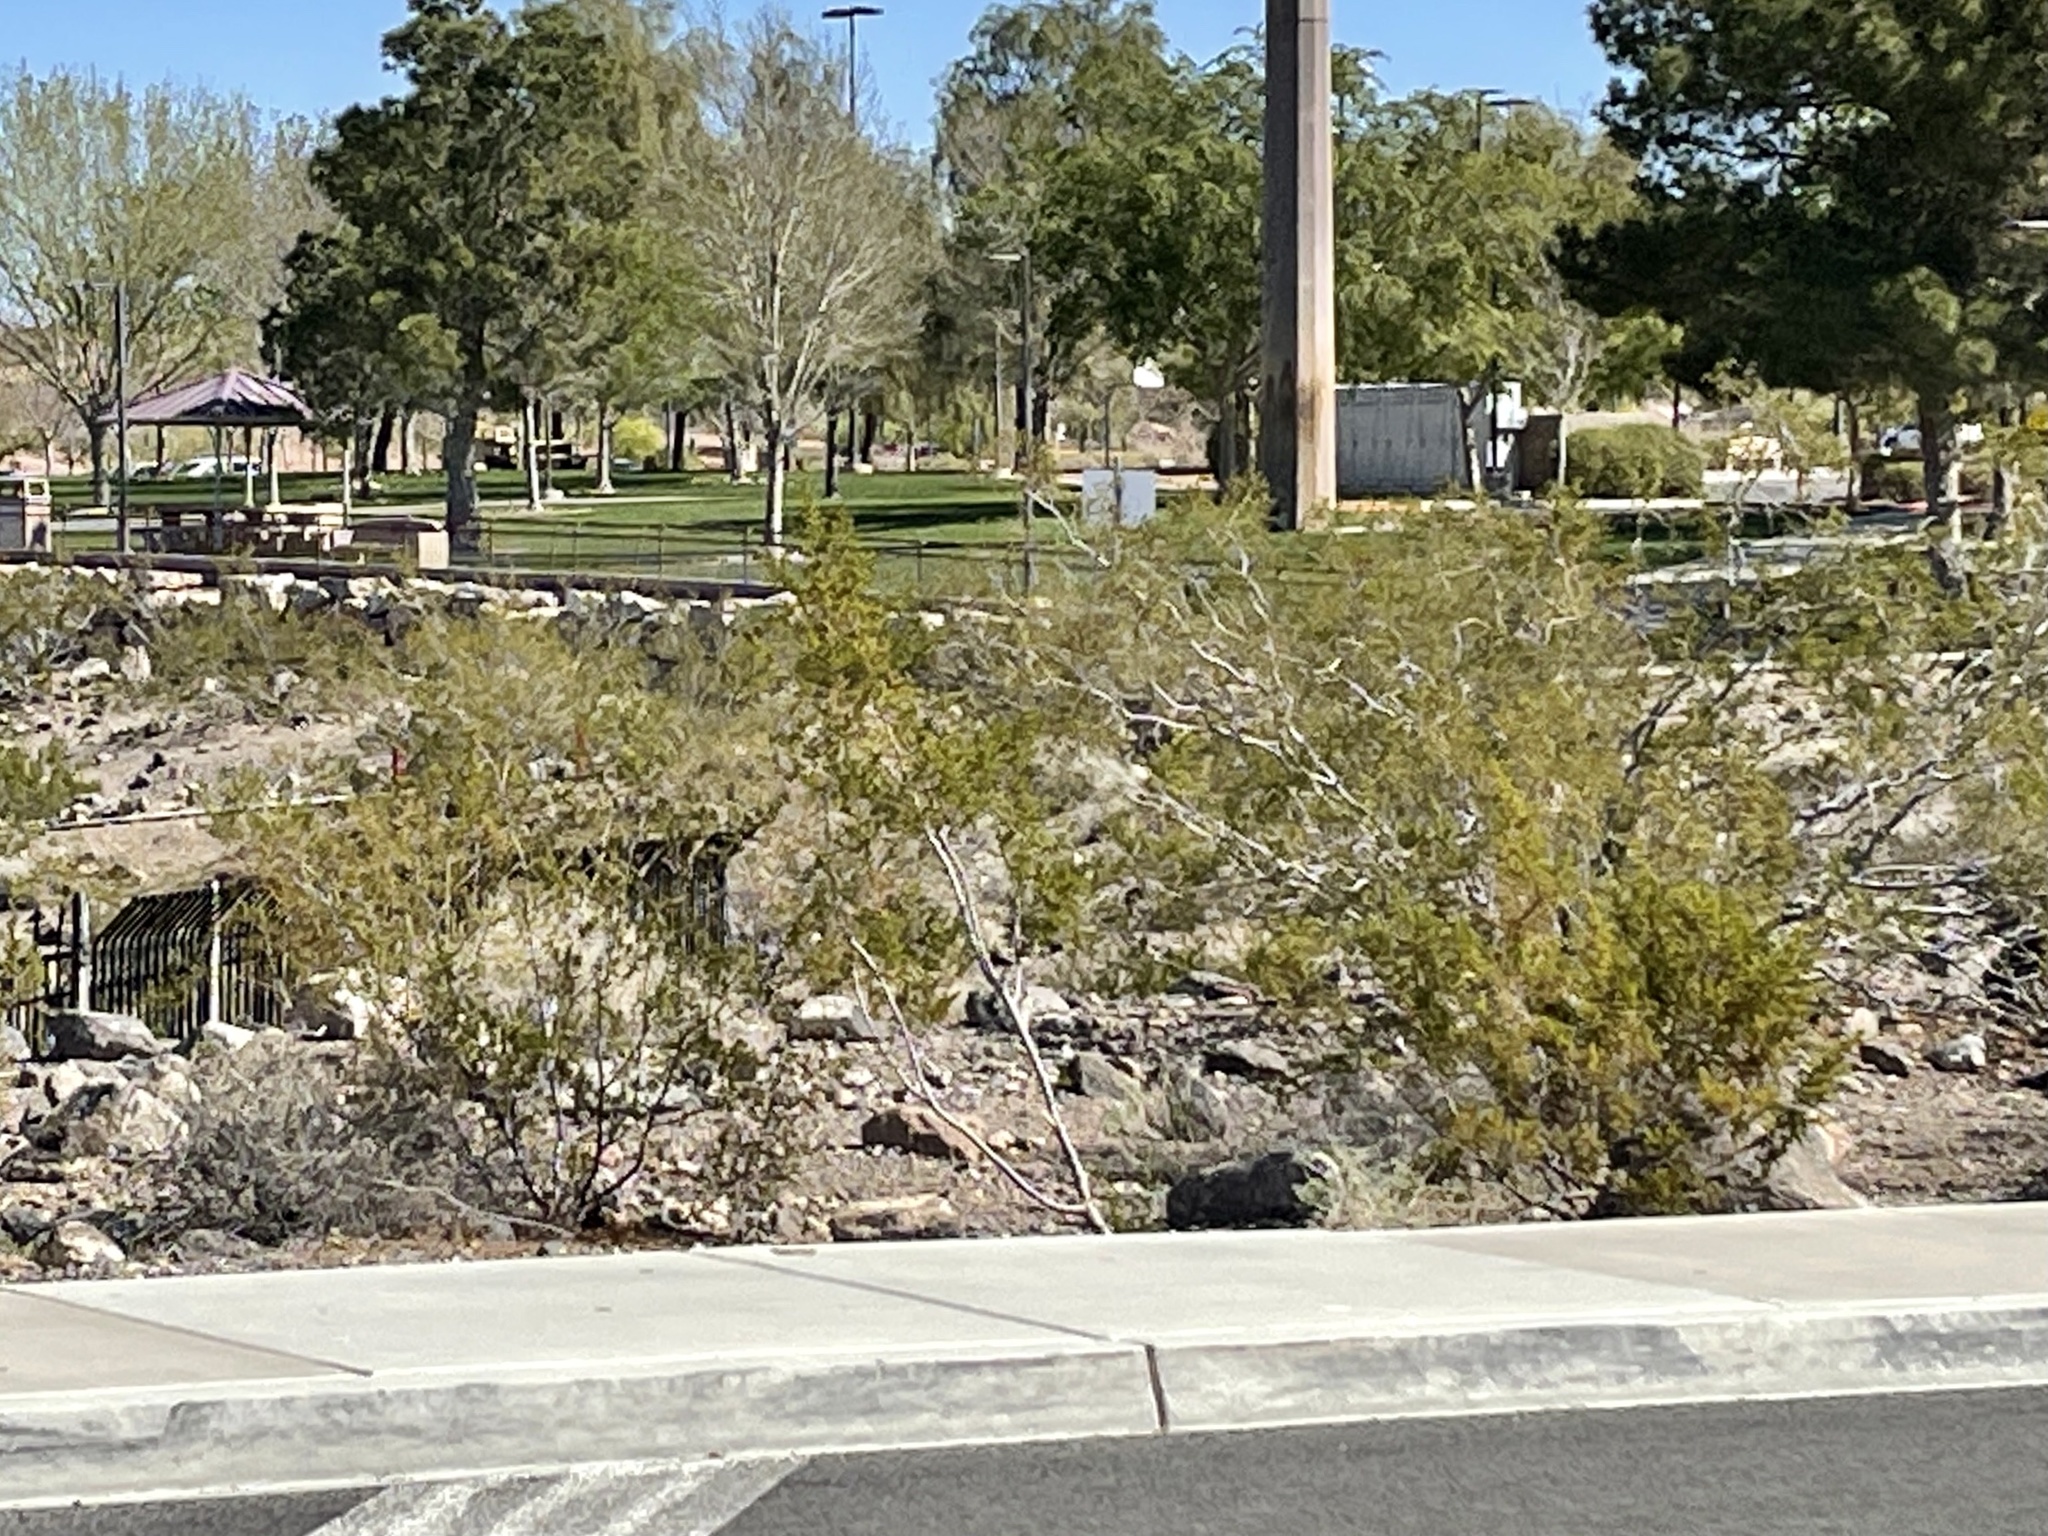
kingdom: Plantae
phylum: Tracheophyta
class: Magnoliopsida
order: Zygophyllales
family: Zygophyllaceae
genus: Larrea
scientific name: Larrea tridentata
